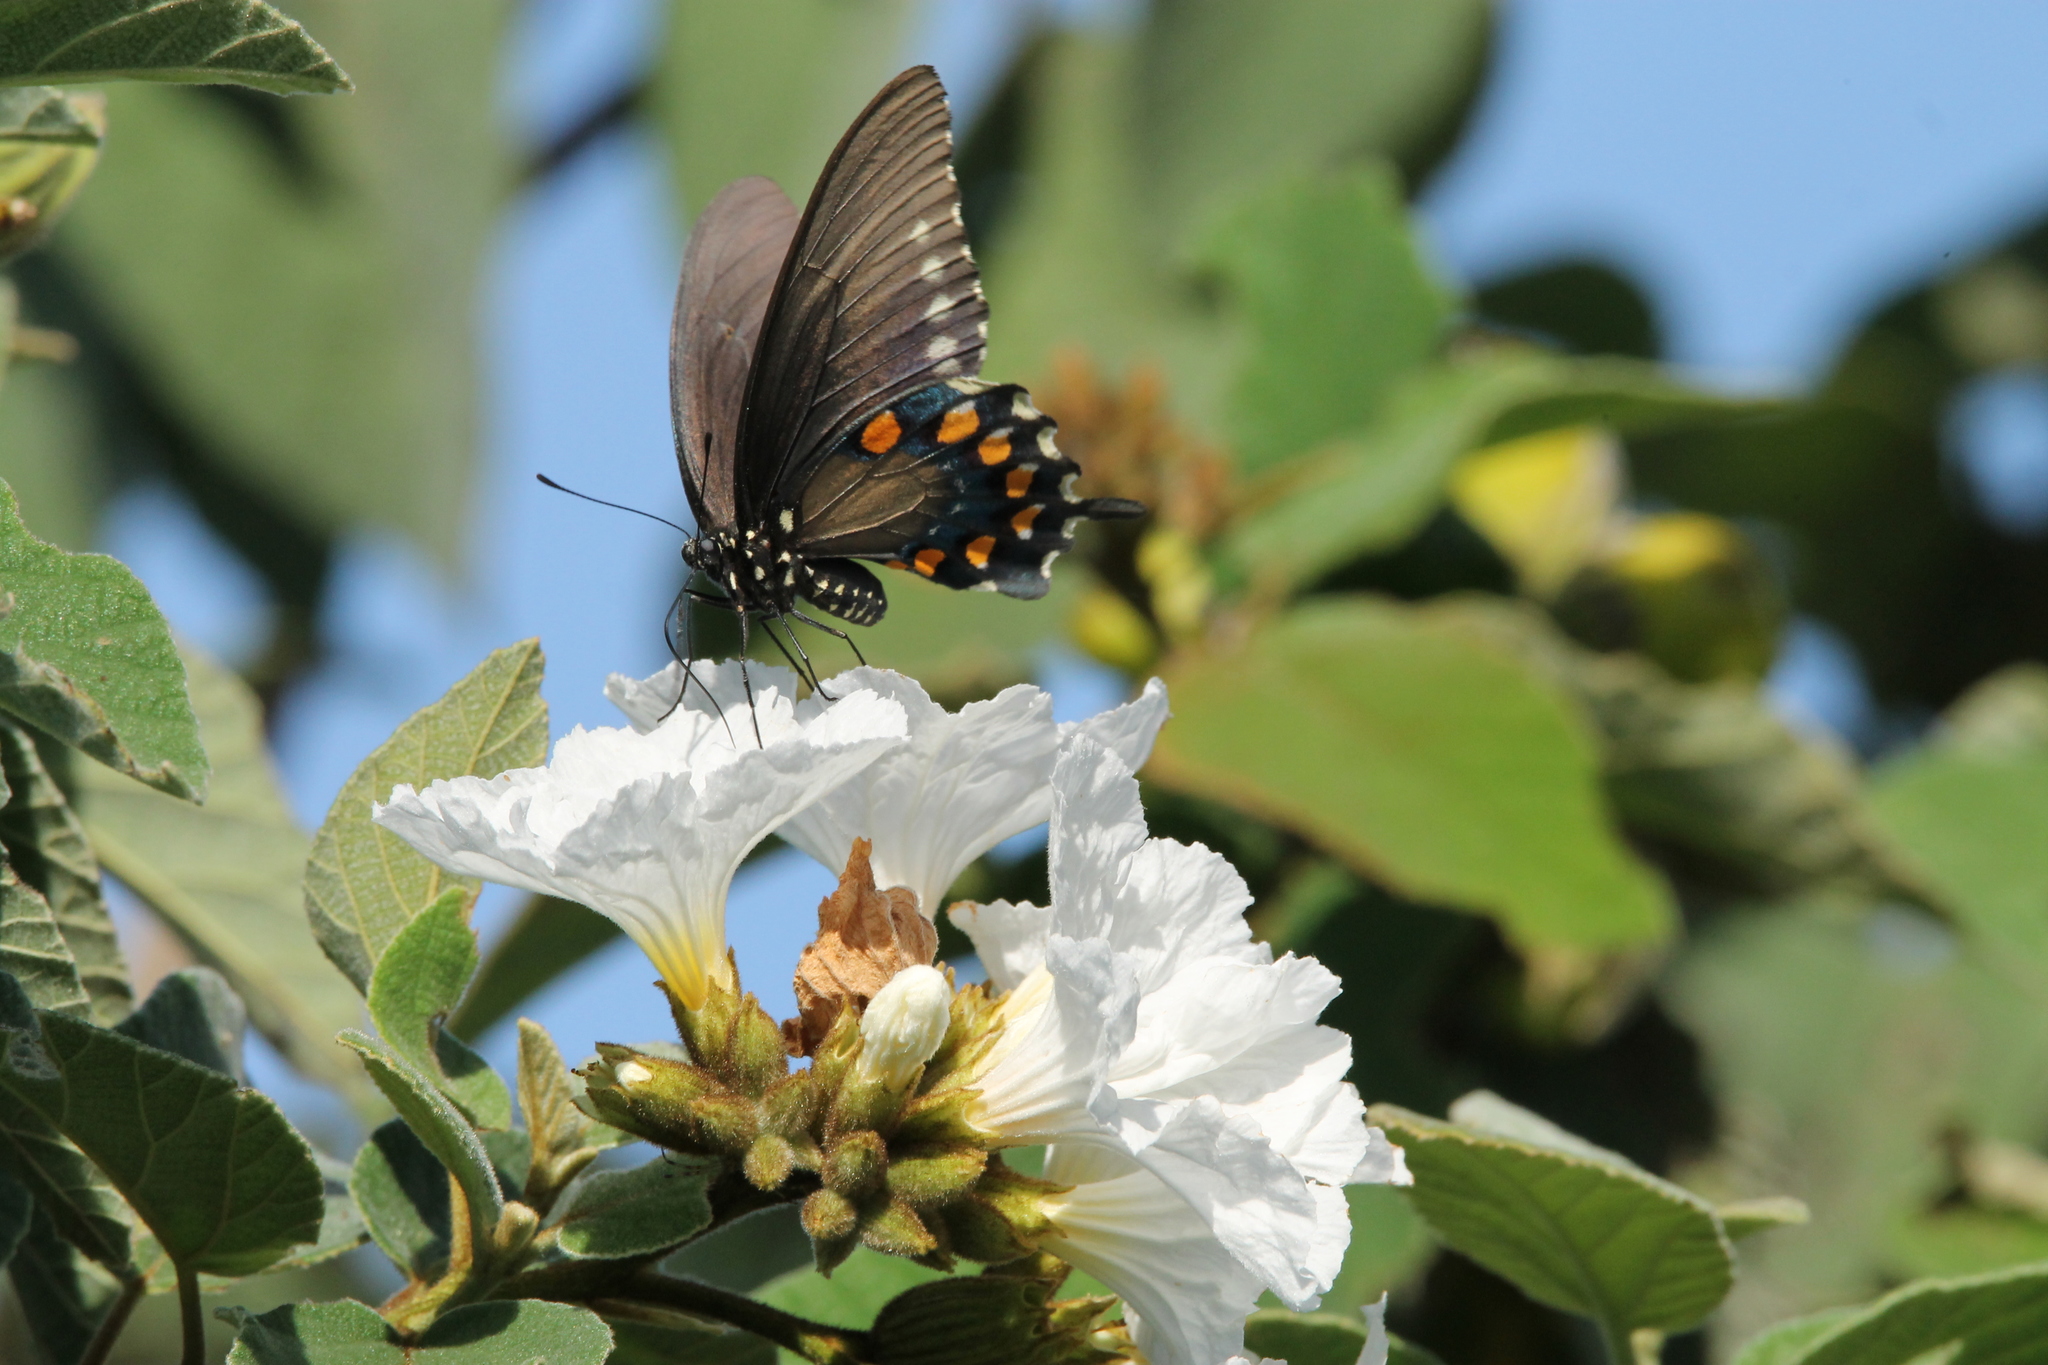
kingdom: Animalia
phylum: Arthropoda
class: Insecta
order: Lepidoptera
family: Papilionidae
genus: Battus
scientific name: Battus philenor
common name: Pipevine swallowtail
